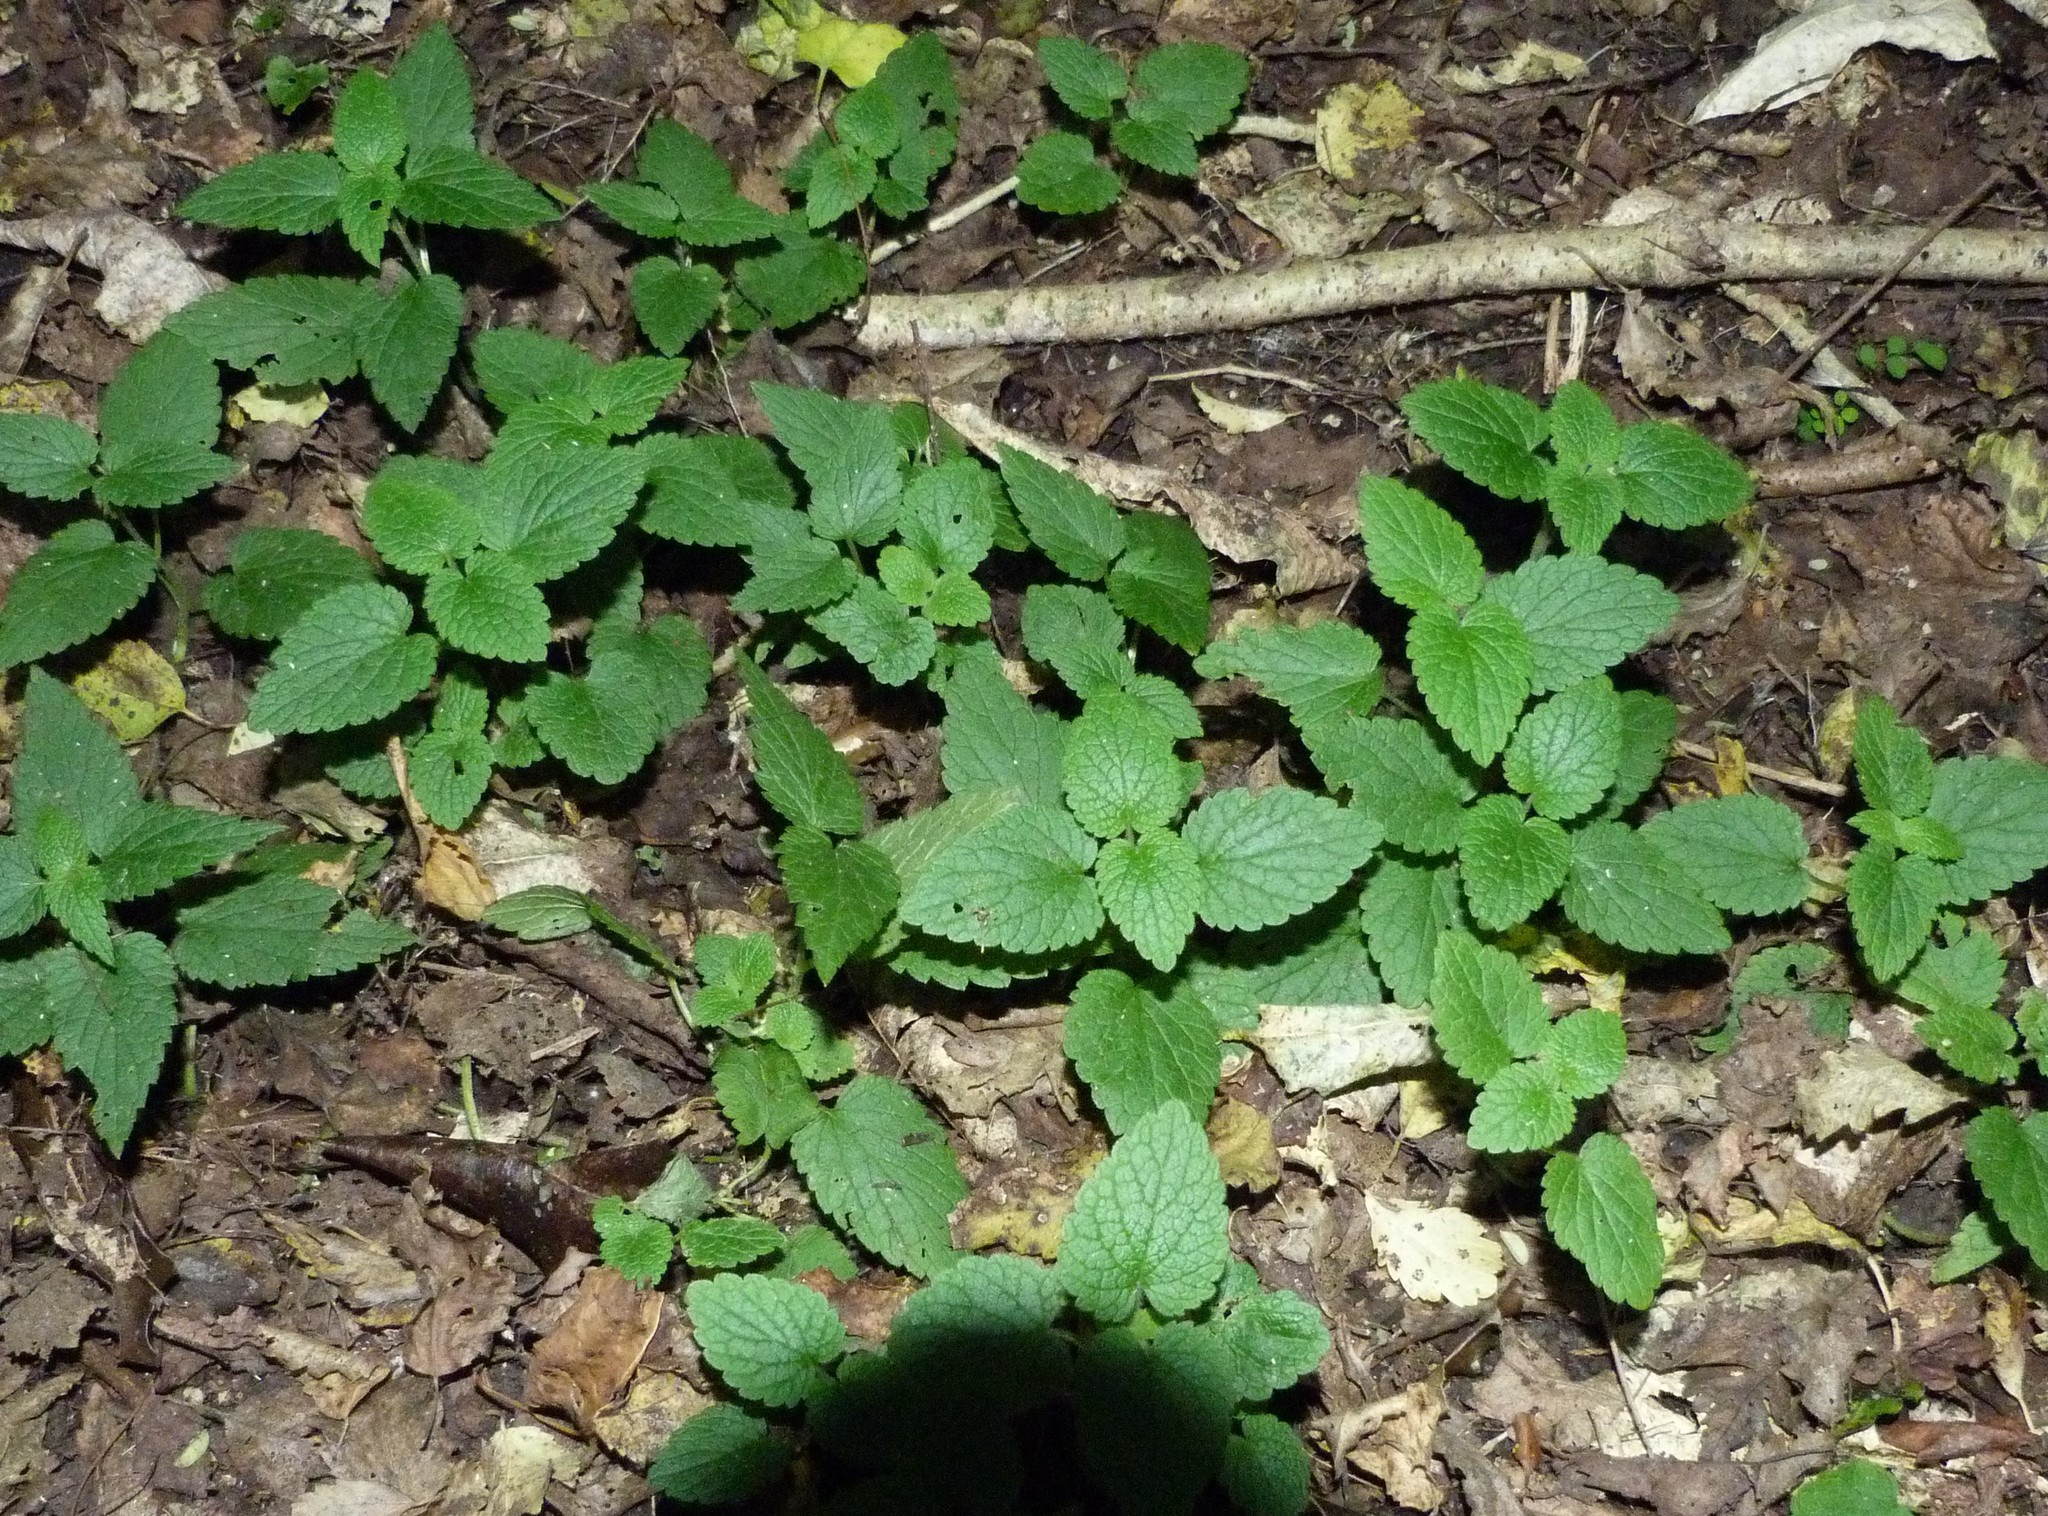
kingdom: Plantae
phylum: Tracheophyta
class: Magnoliopsida
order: Lamiales
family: Lamiaceae
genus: Stachys
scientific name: Stachys sylvatica
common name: Hedge woundwort
